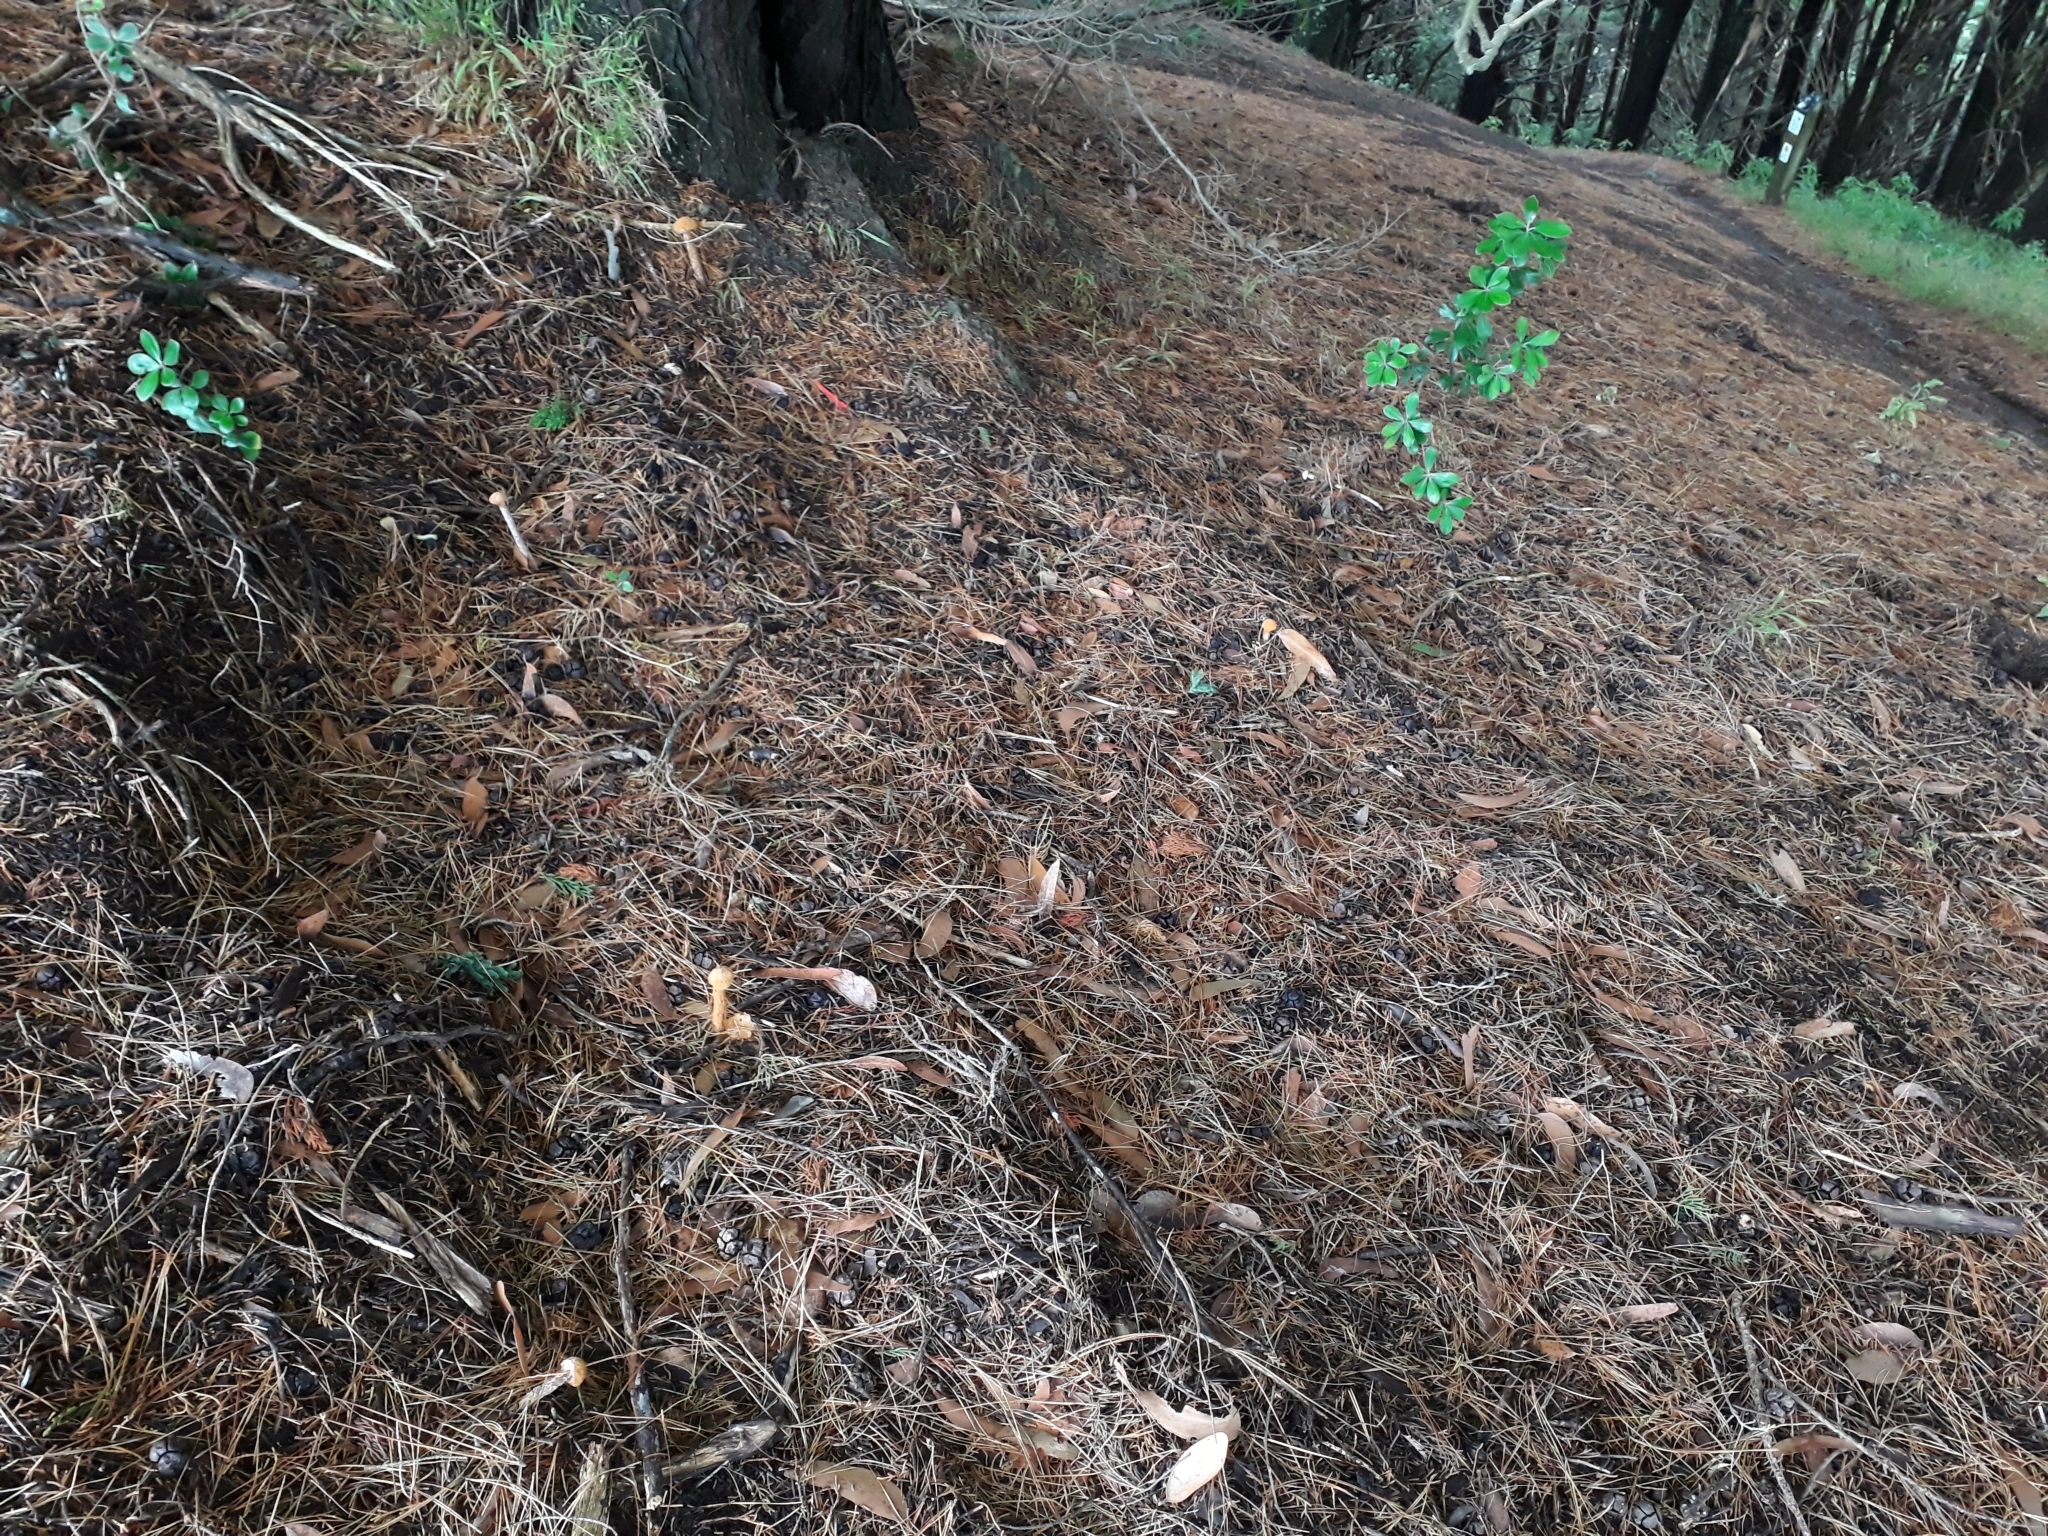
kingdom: Fungi
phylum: Basidiomycota
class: Agaricomycetes
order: Agaricales
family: Agaricaceae
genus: Battarrea
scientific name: Battarrea phalloides
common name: Sandy stiltball
